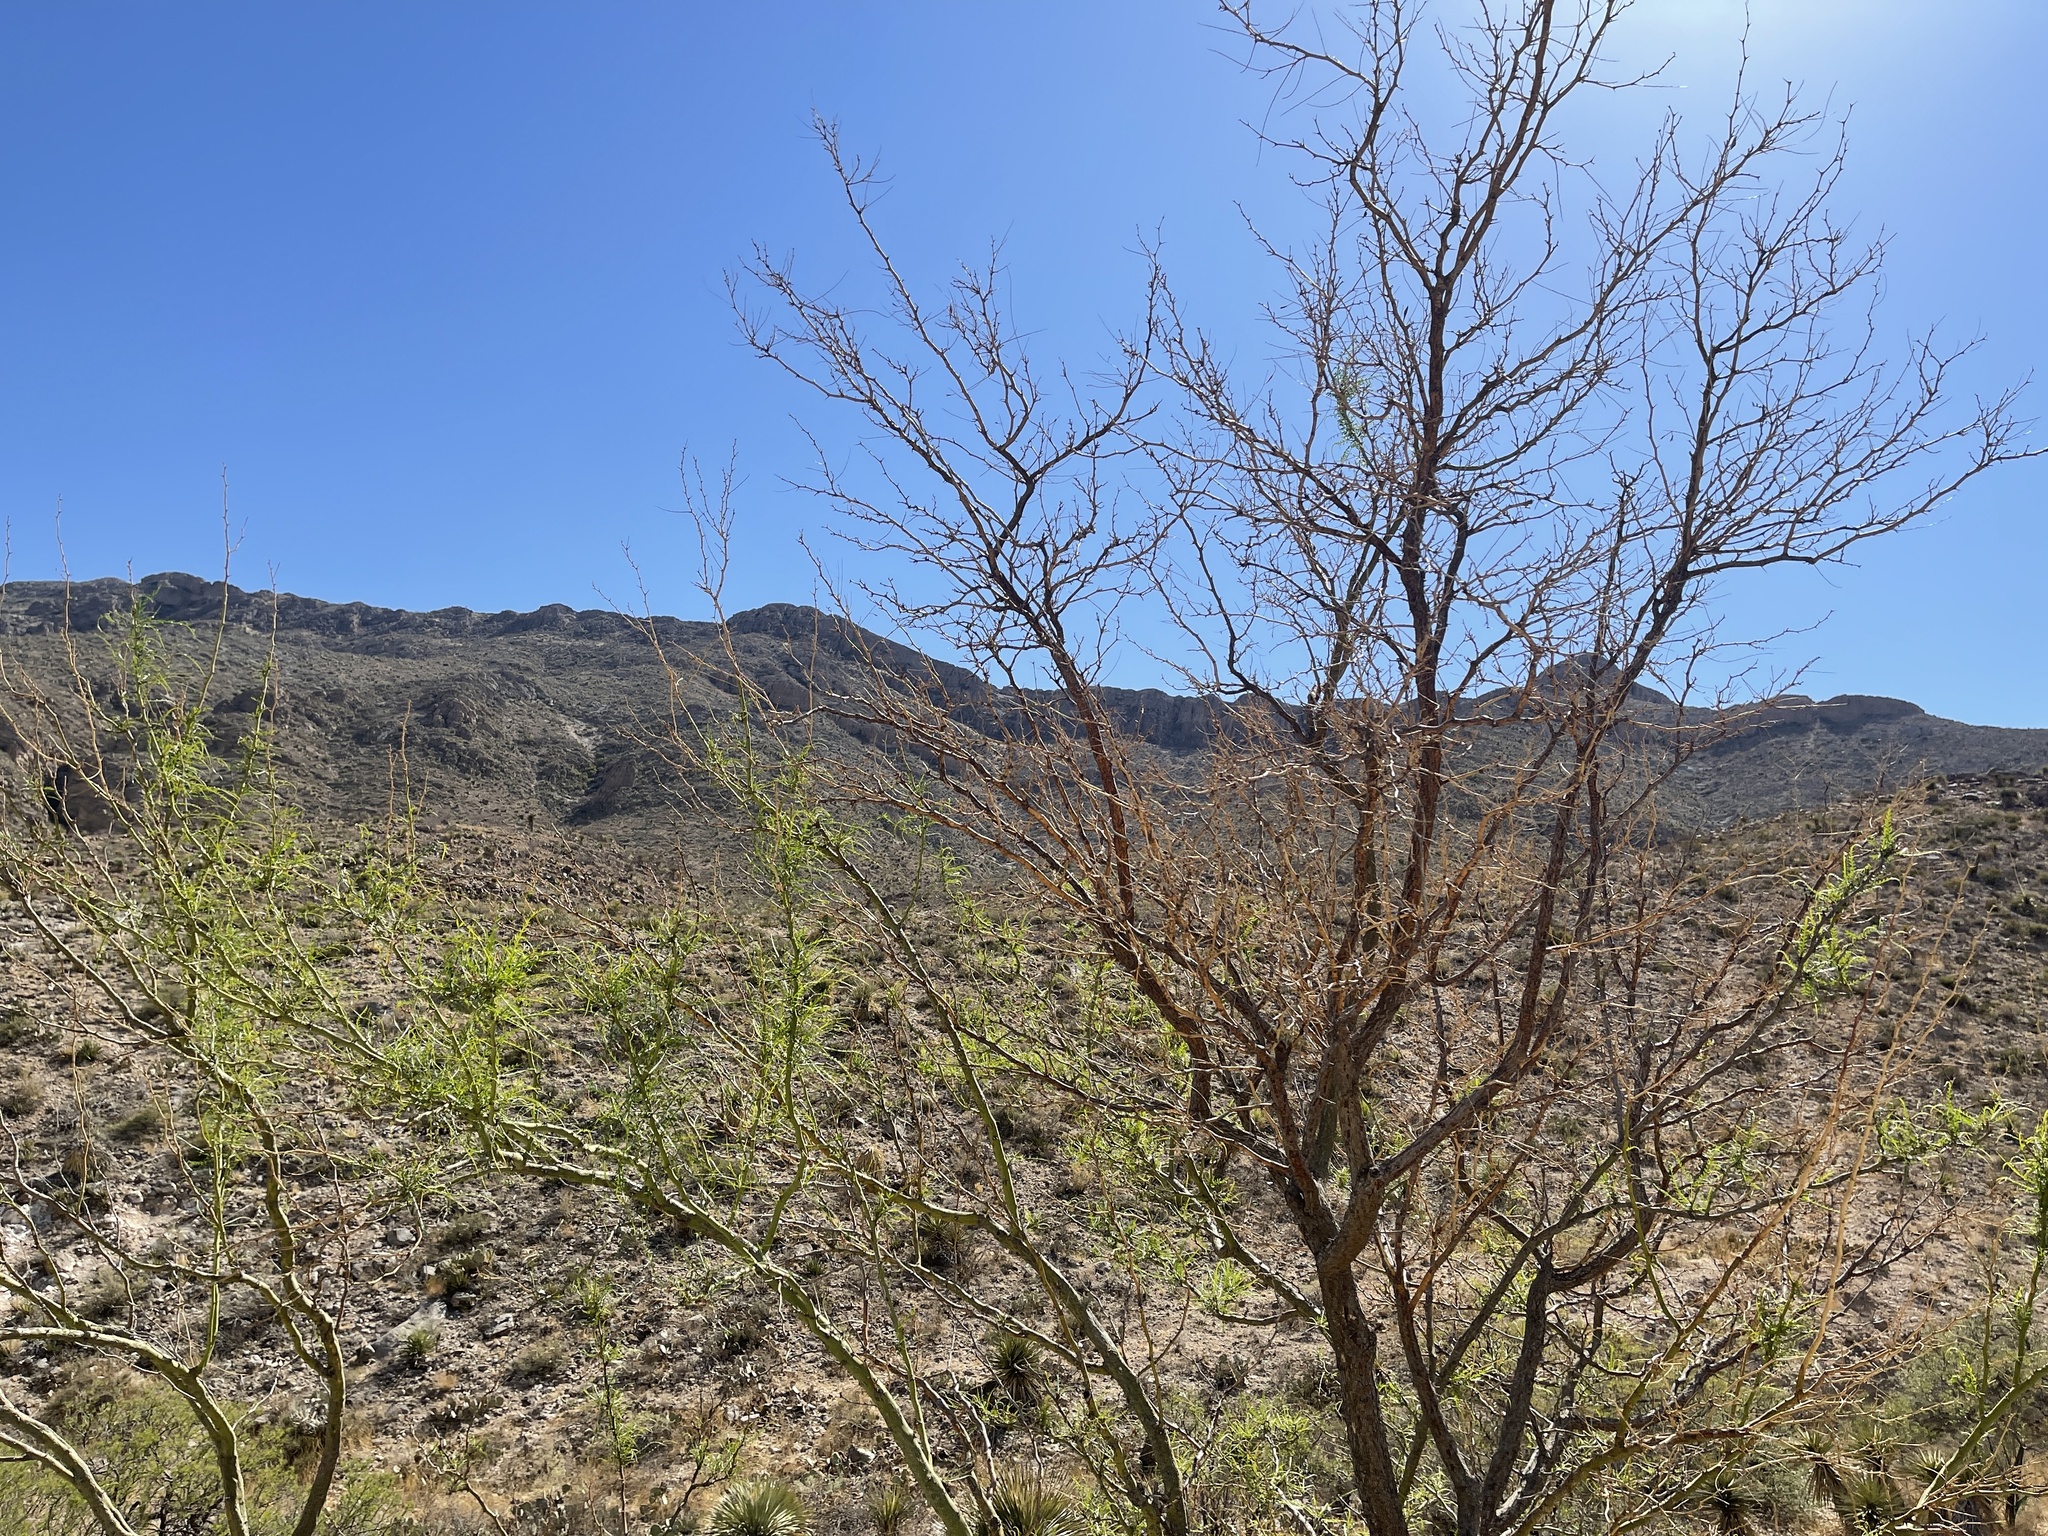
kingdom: Plantae
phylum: Tracheophyta
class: Magnoliopsida
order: Fabales
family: Fabaceae
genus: Parkinsonia
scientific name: Parkinsonia aculeata
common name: Jerusalem thorn
